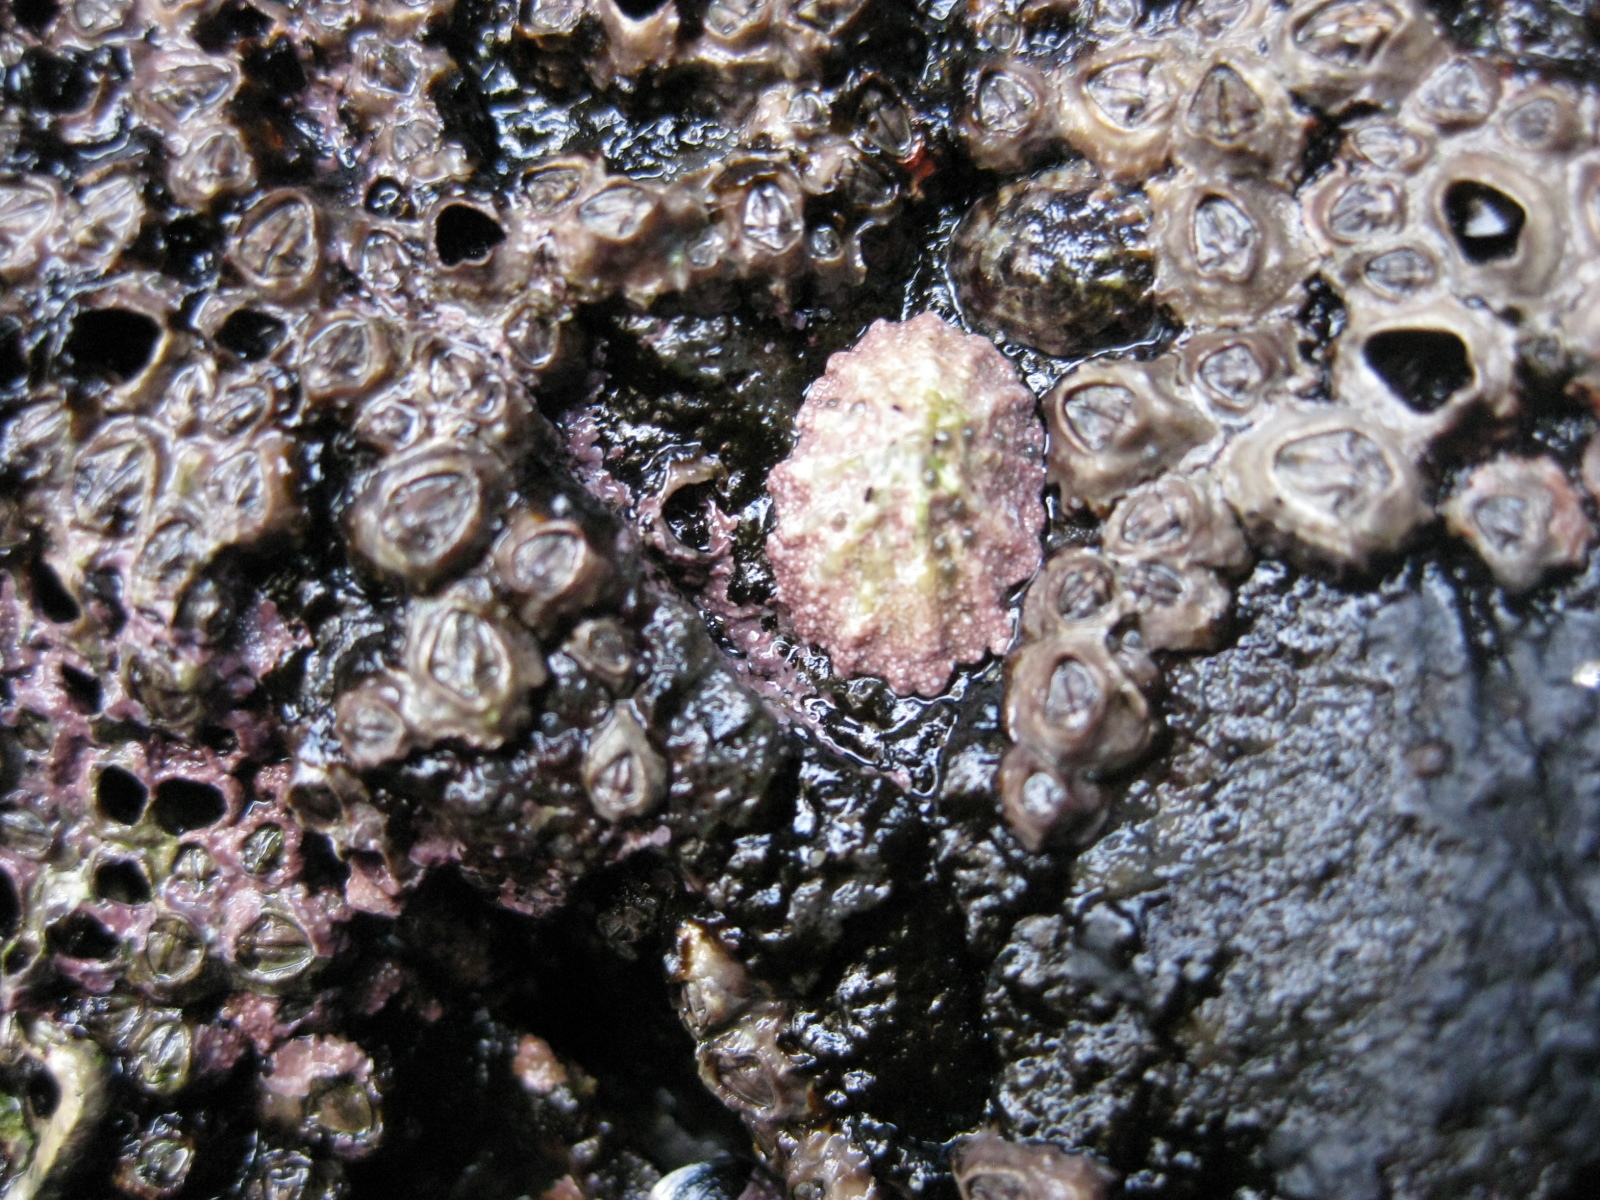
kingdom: Animalia
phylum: Mollusca
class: Gastropoda
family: Lottiidae
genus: Patelloida
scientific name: Patelloida corticata
